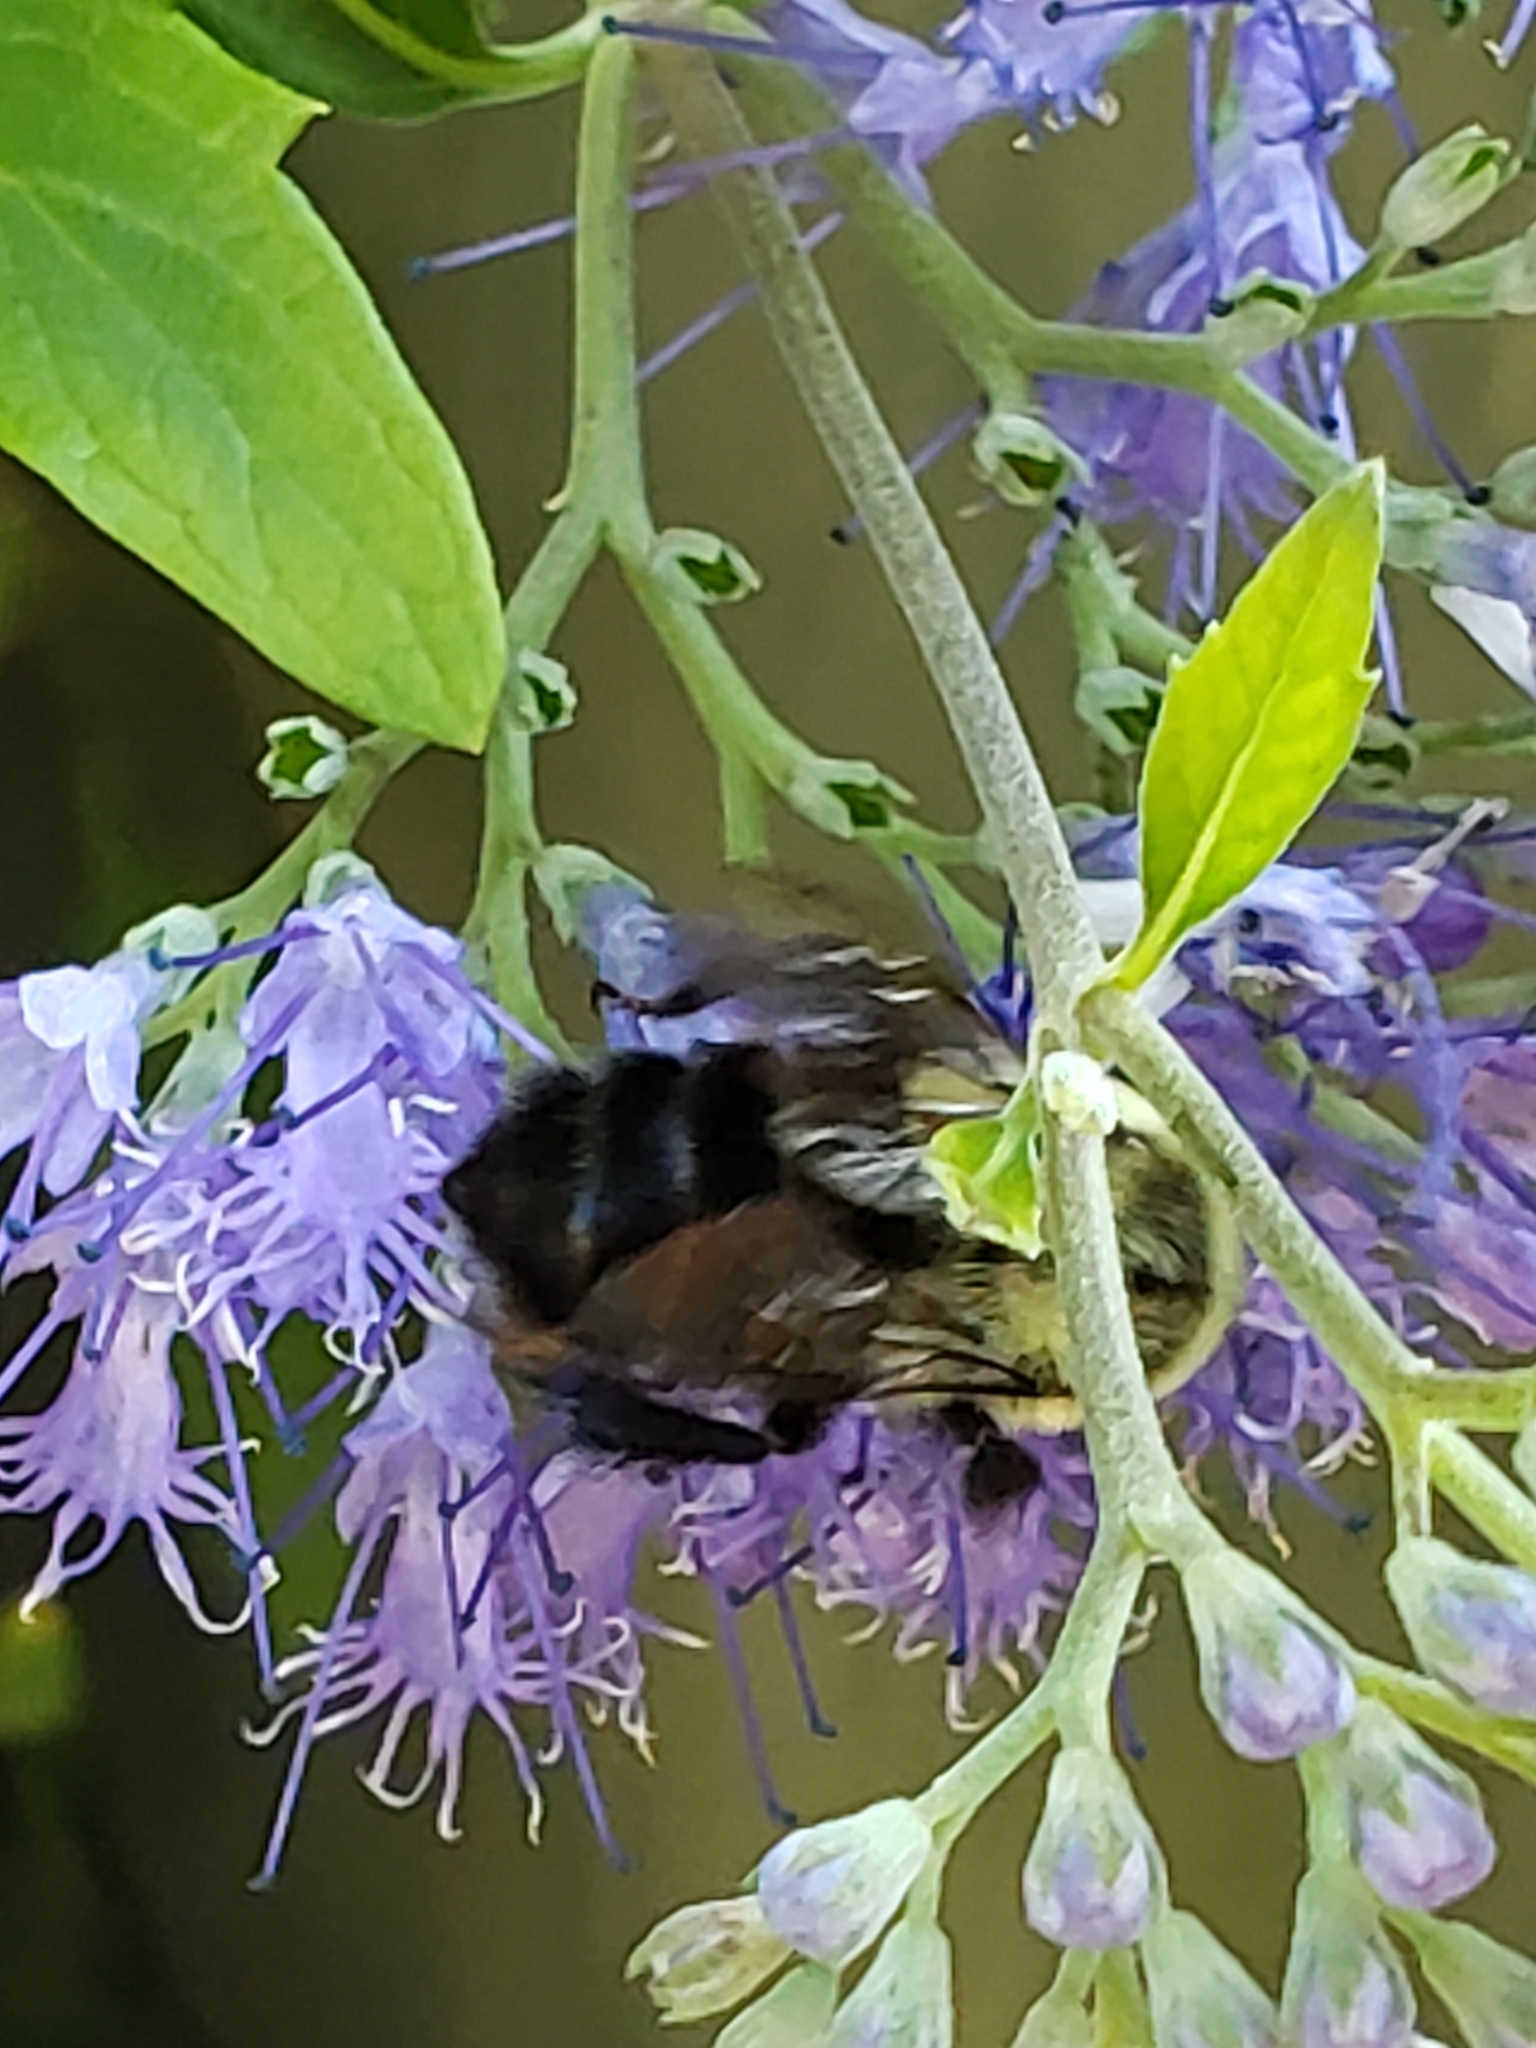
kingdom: Animalia
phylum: Arthropoda
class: Insecta
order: Hymenoptera
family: Apidae
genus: Bombus
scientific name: Bombus impatiens
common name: Common eastern bumble bee
